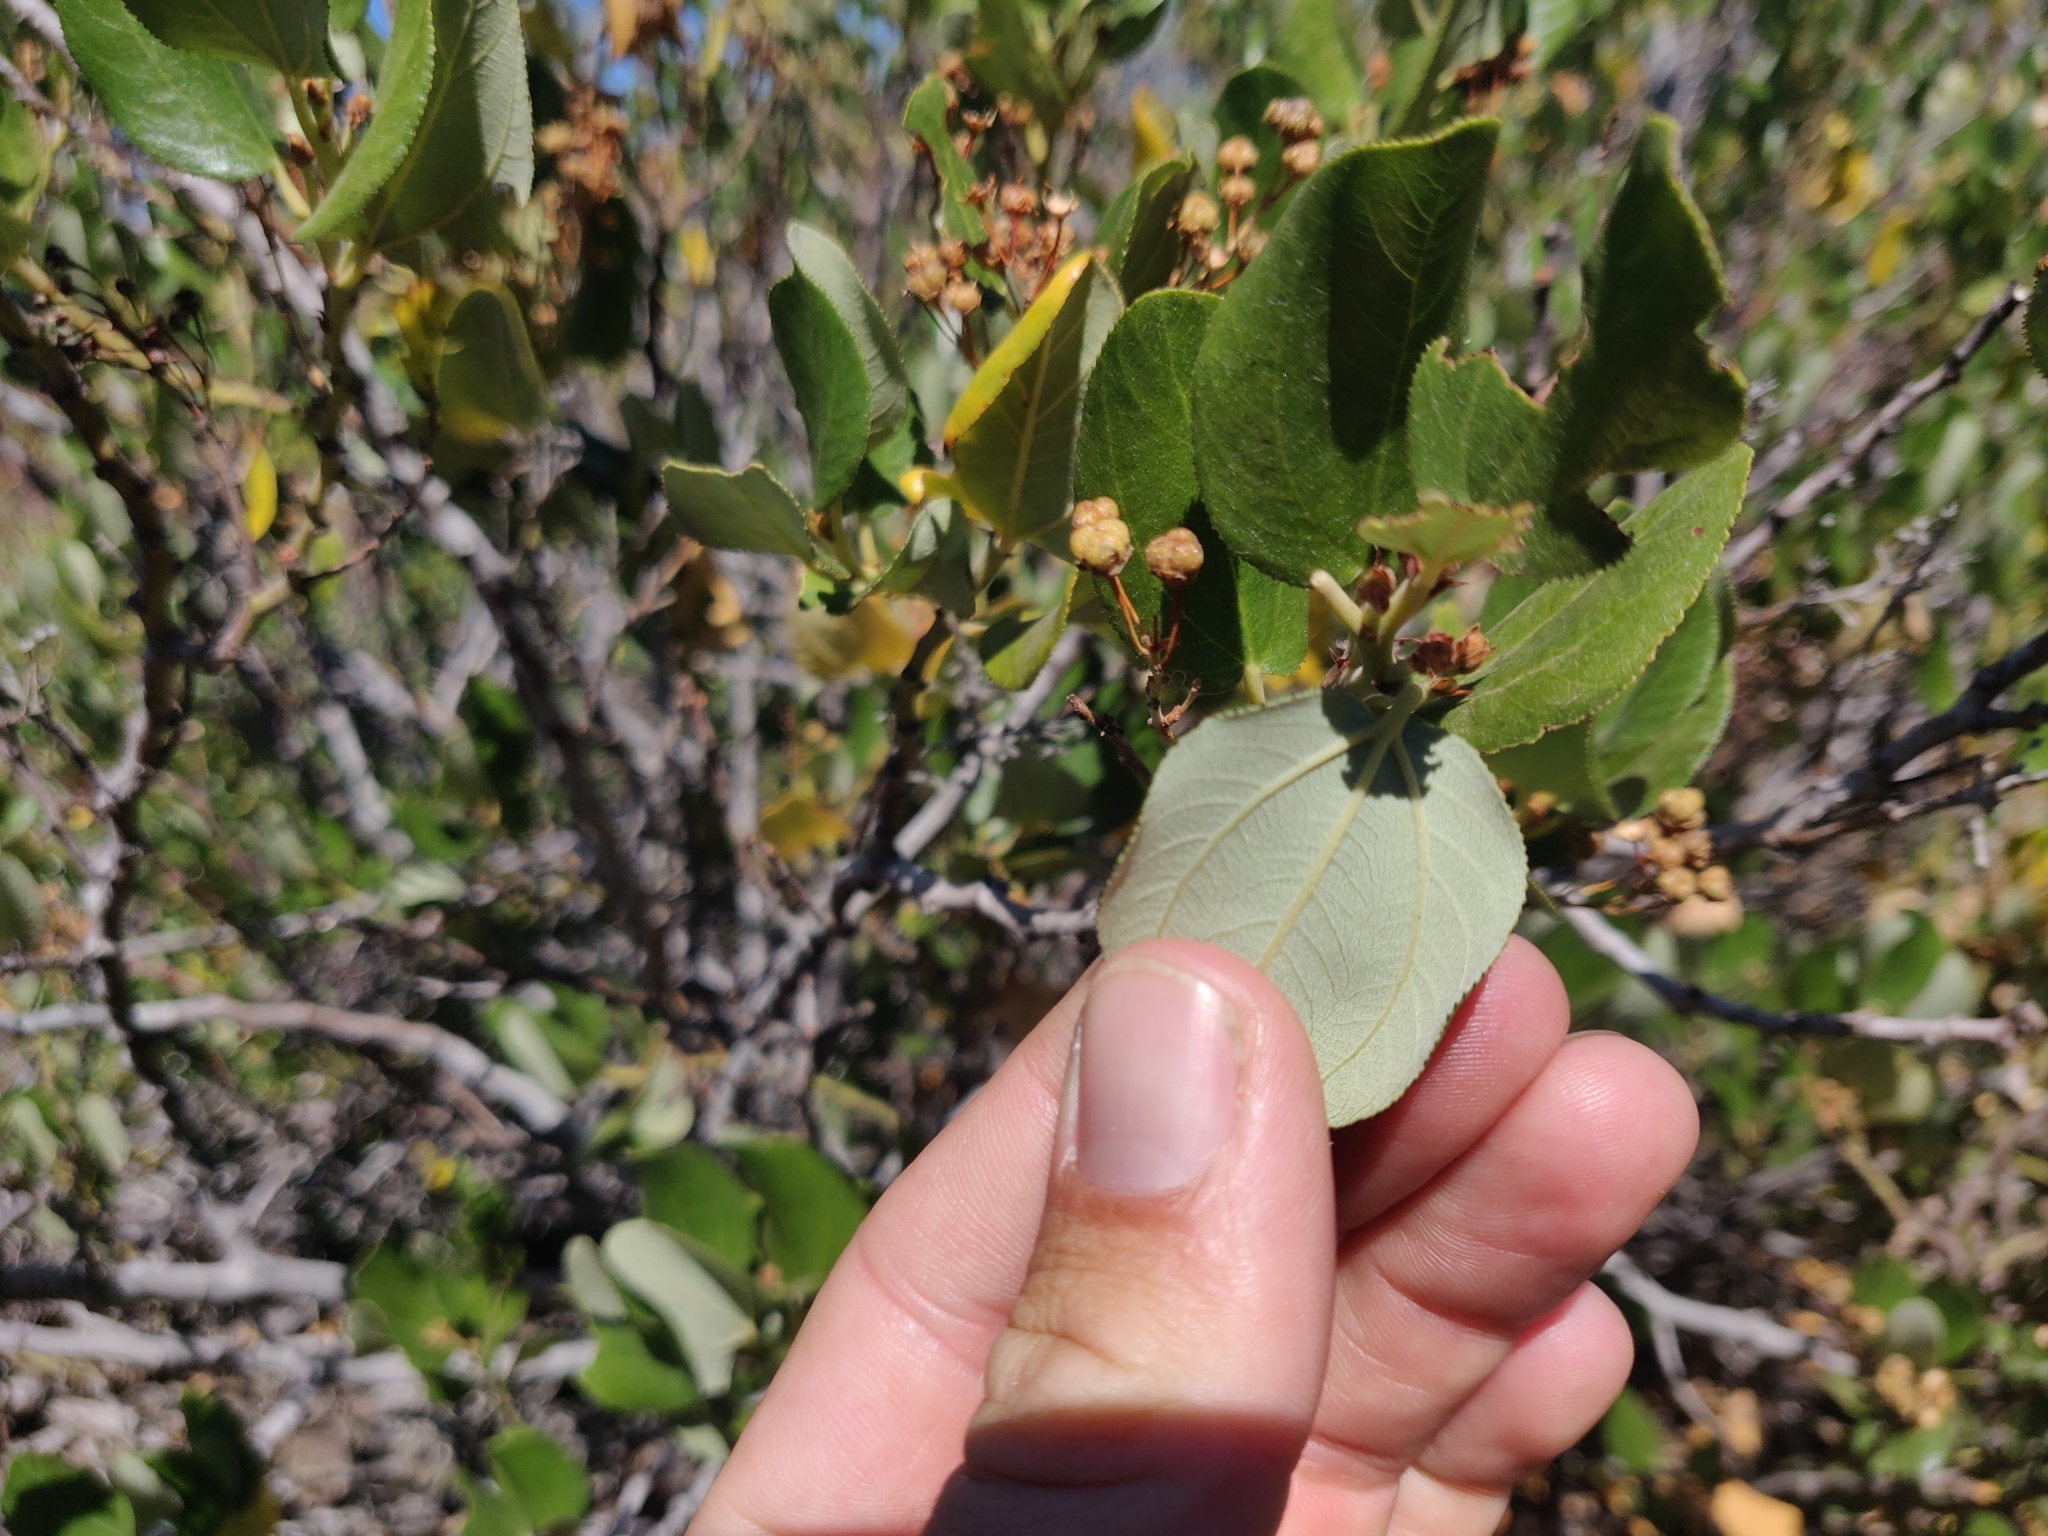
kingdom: Plantae
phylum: Tracheophyta
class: Magnoliopsida
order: Rosales
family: Rhamnaceae
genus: Ceanothus
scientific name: Ceanothus velutinus
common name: Snowbrush
